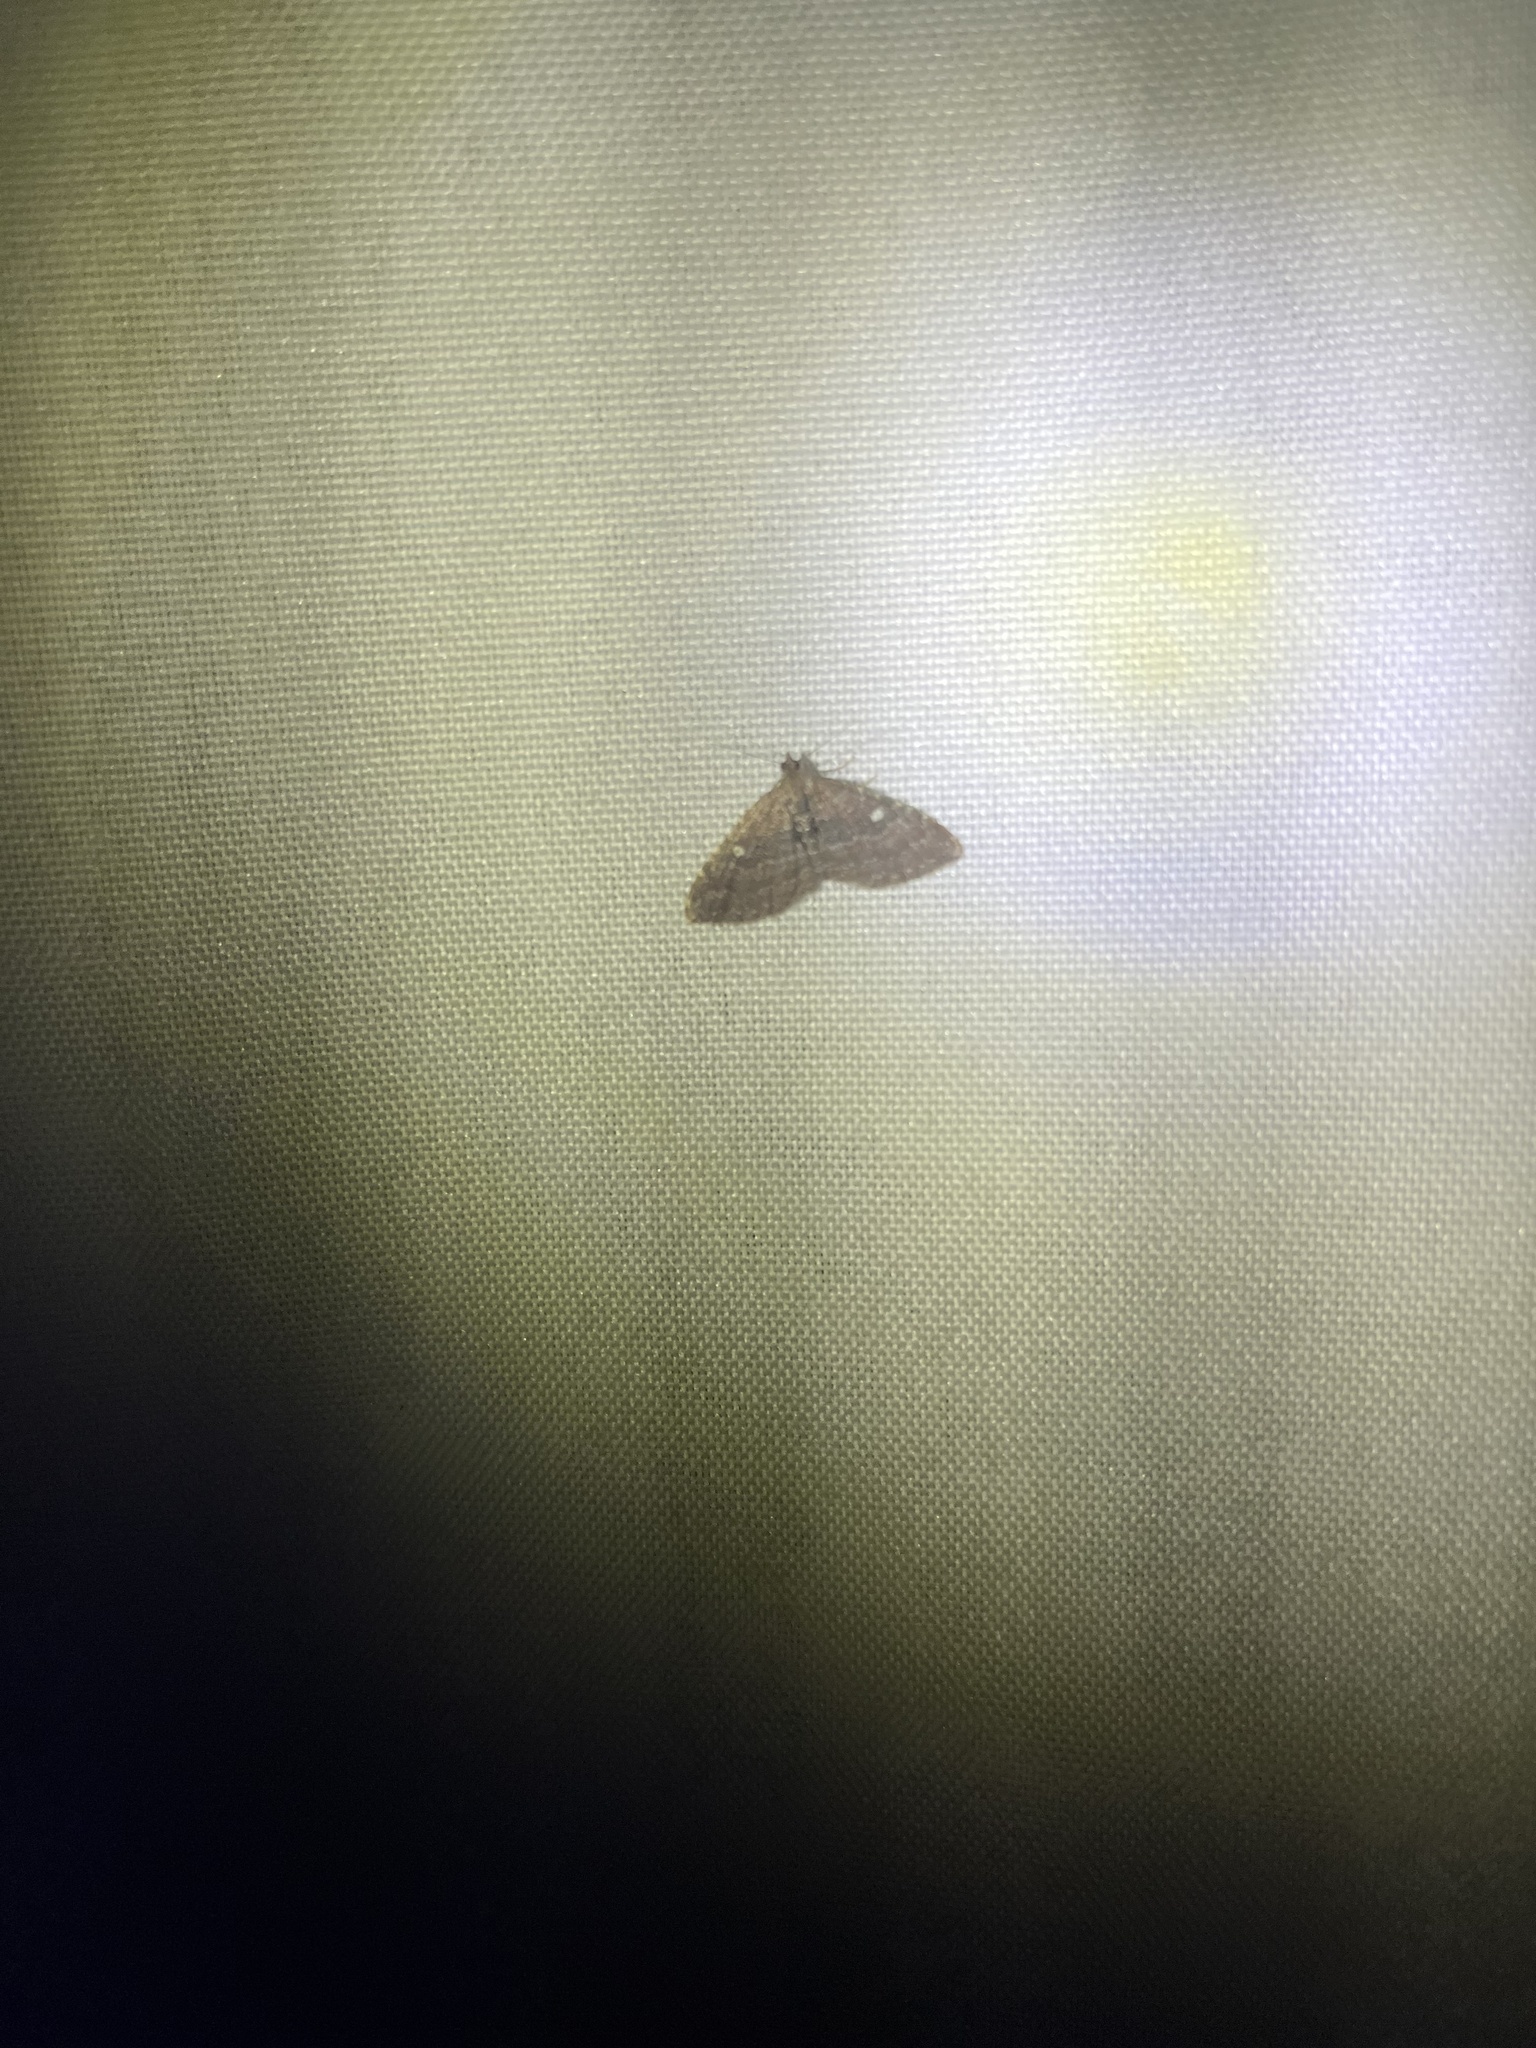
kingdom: Animalia
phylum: Arthropoda
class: Insecta
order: Lepidoptera
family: Geometridae
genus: Orthonama
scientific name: Orthonama obstipata
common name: The gem
